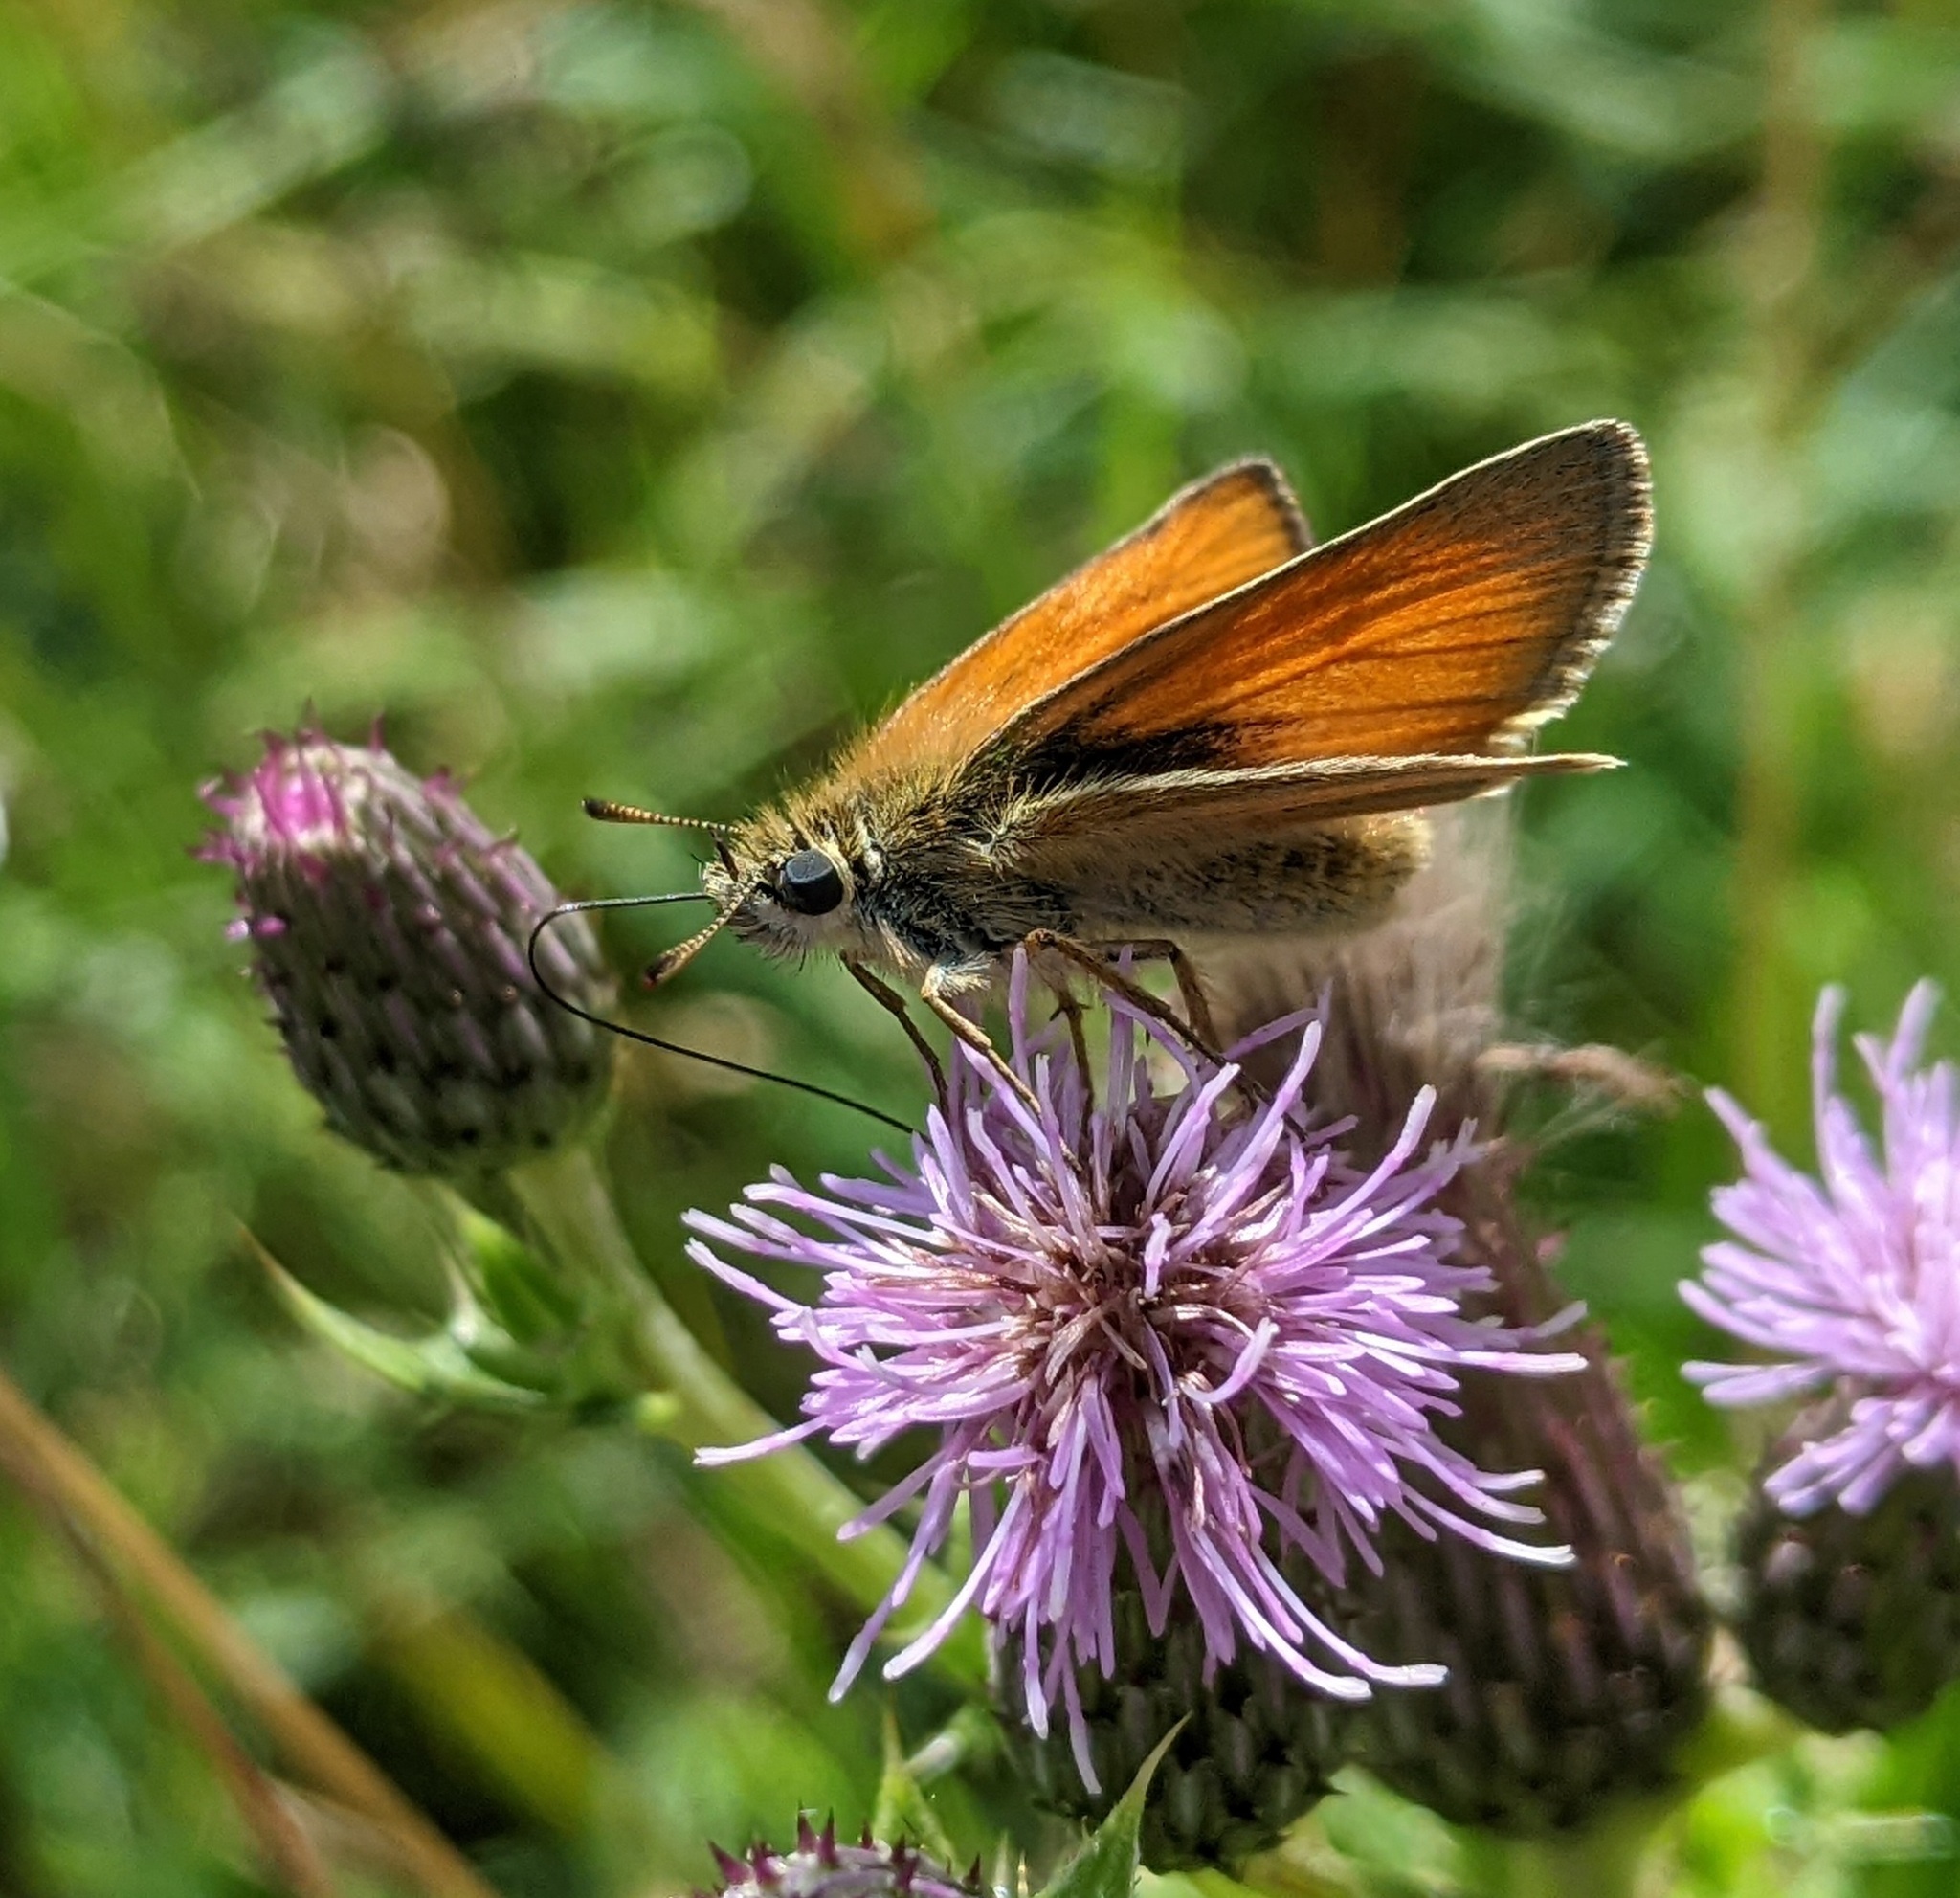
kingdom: Animalia
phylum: Arthropoda
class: Insecta
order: Lepidoptera
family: Hesperiidae
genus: Thymelicus
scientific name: Thymelicus sylvestris
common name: Small skipper
